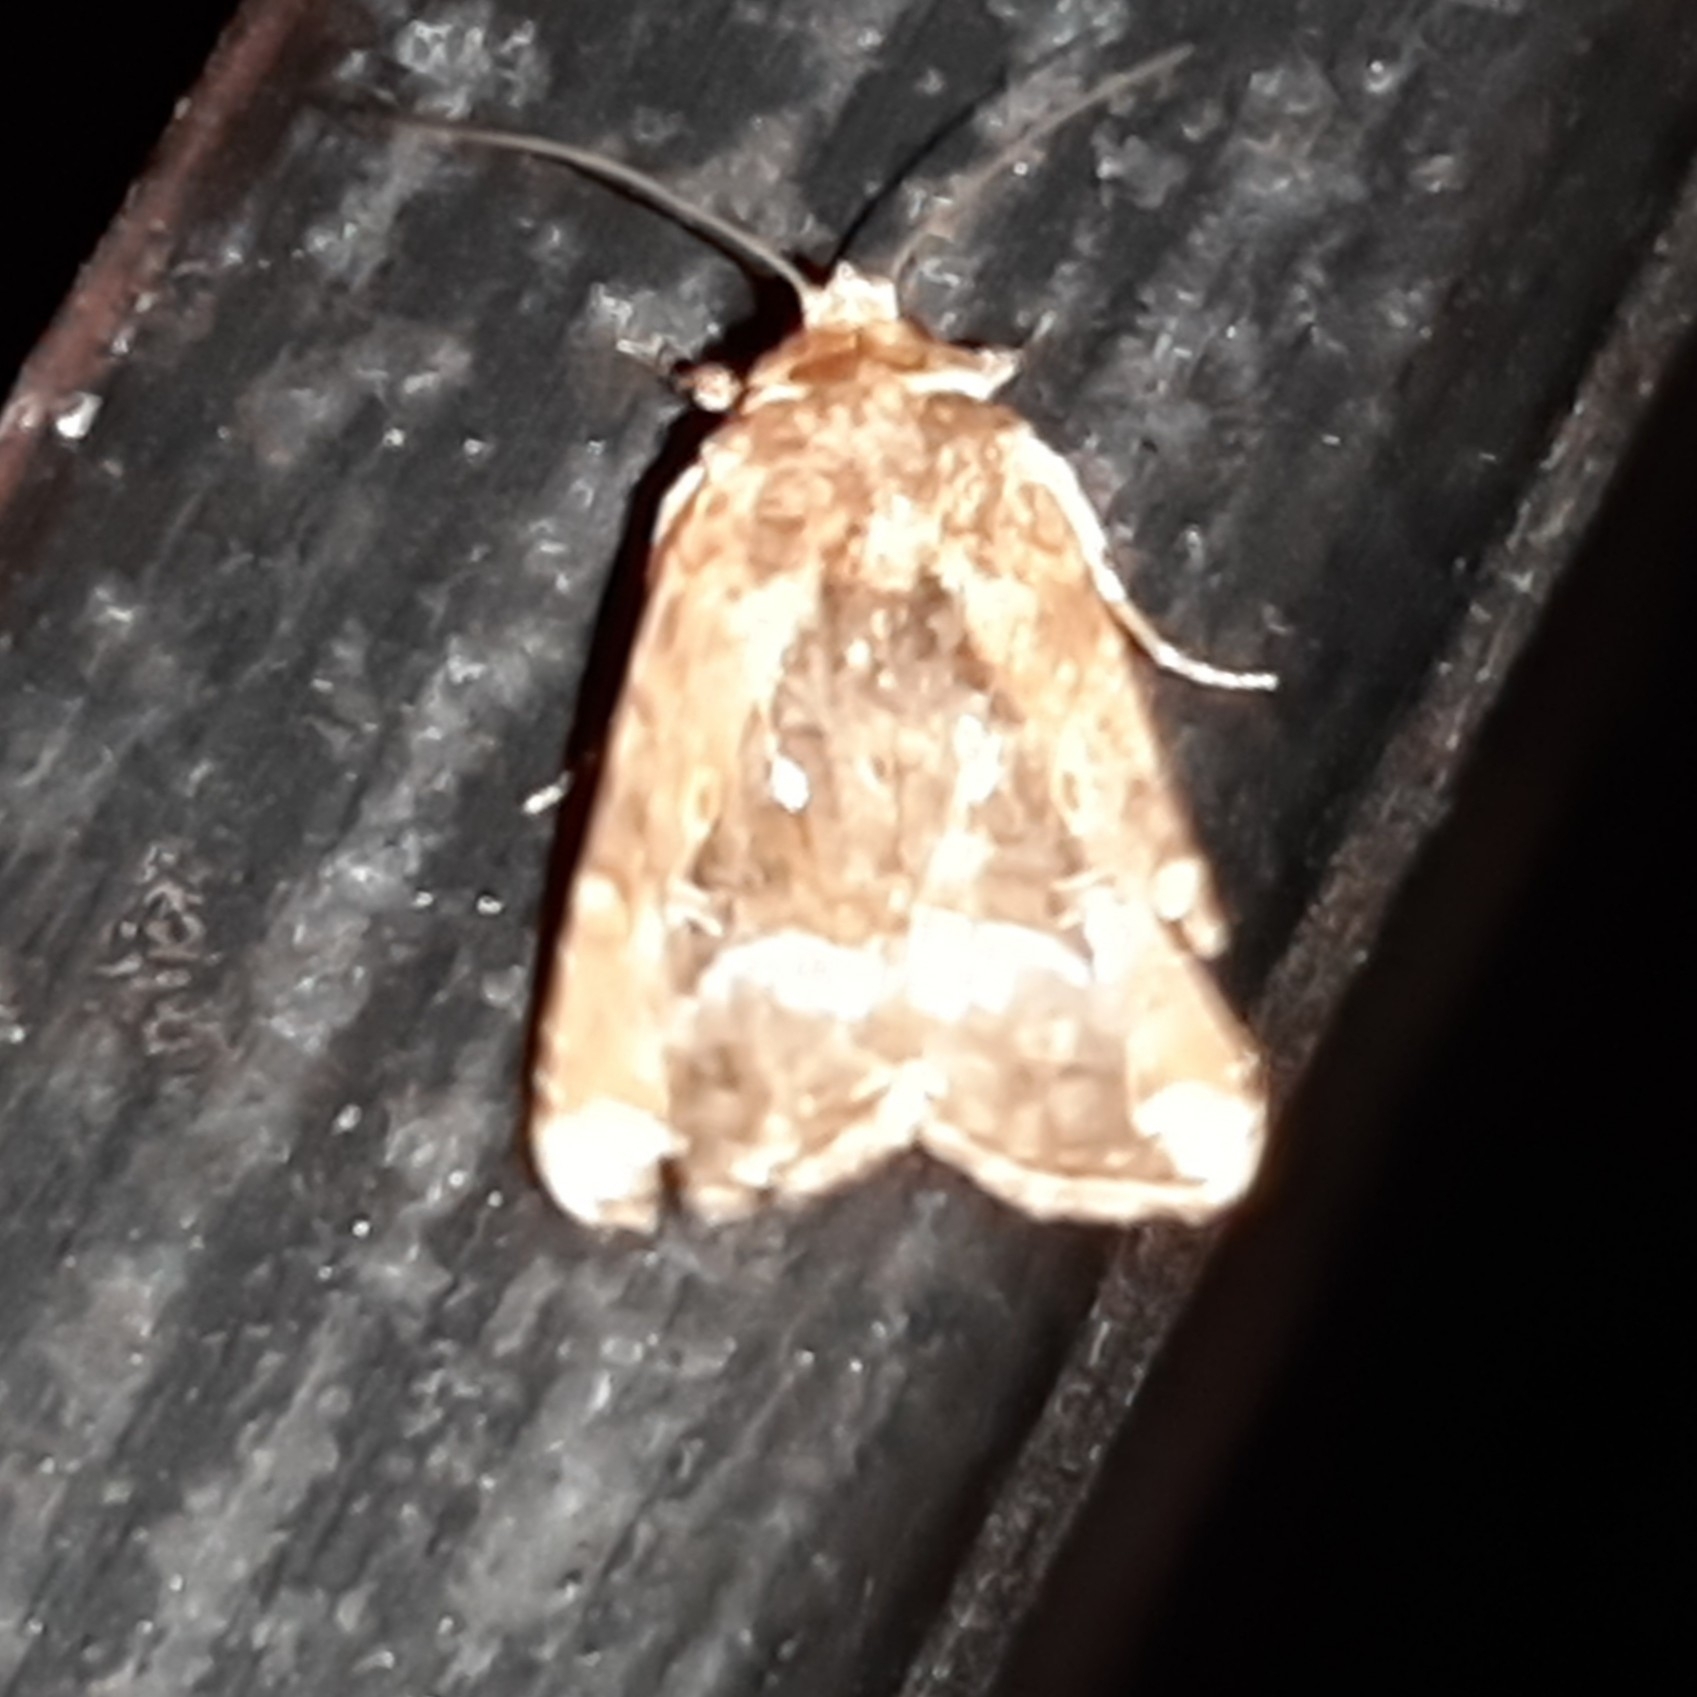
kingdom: Animalia
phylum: Arthropoda
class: Insecta
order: Lepidoptera
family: Noctuidae
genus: Elaphria
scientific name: Elaphria subobliqua
